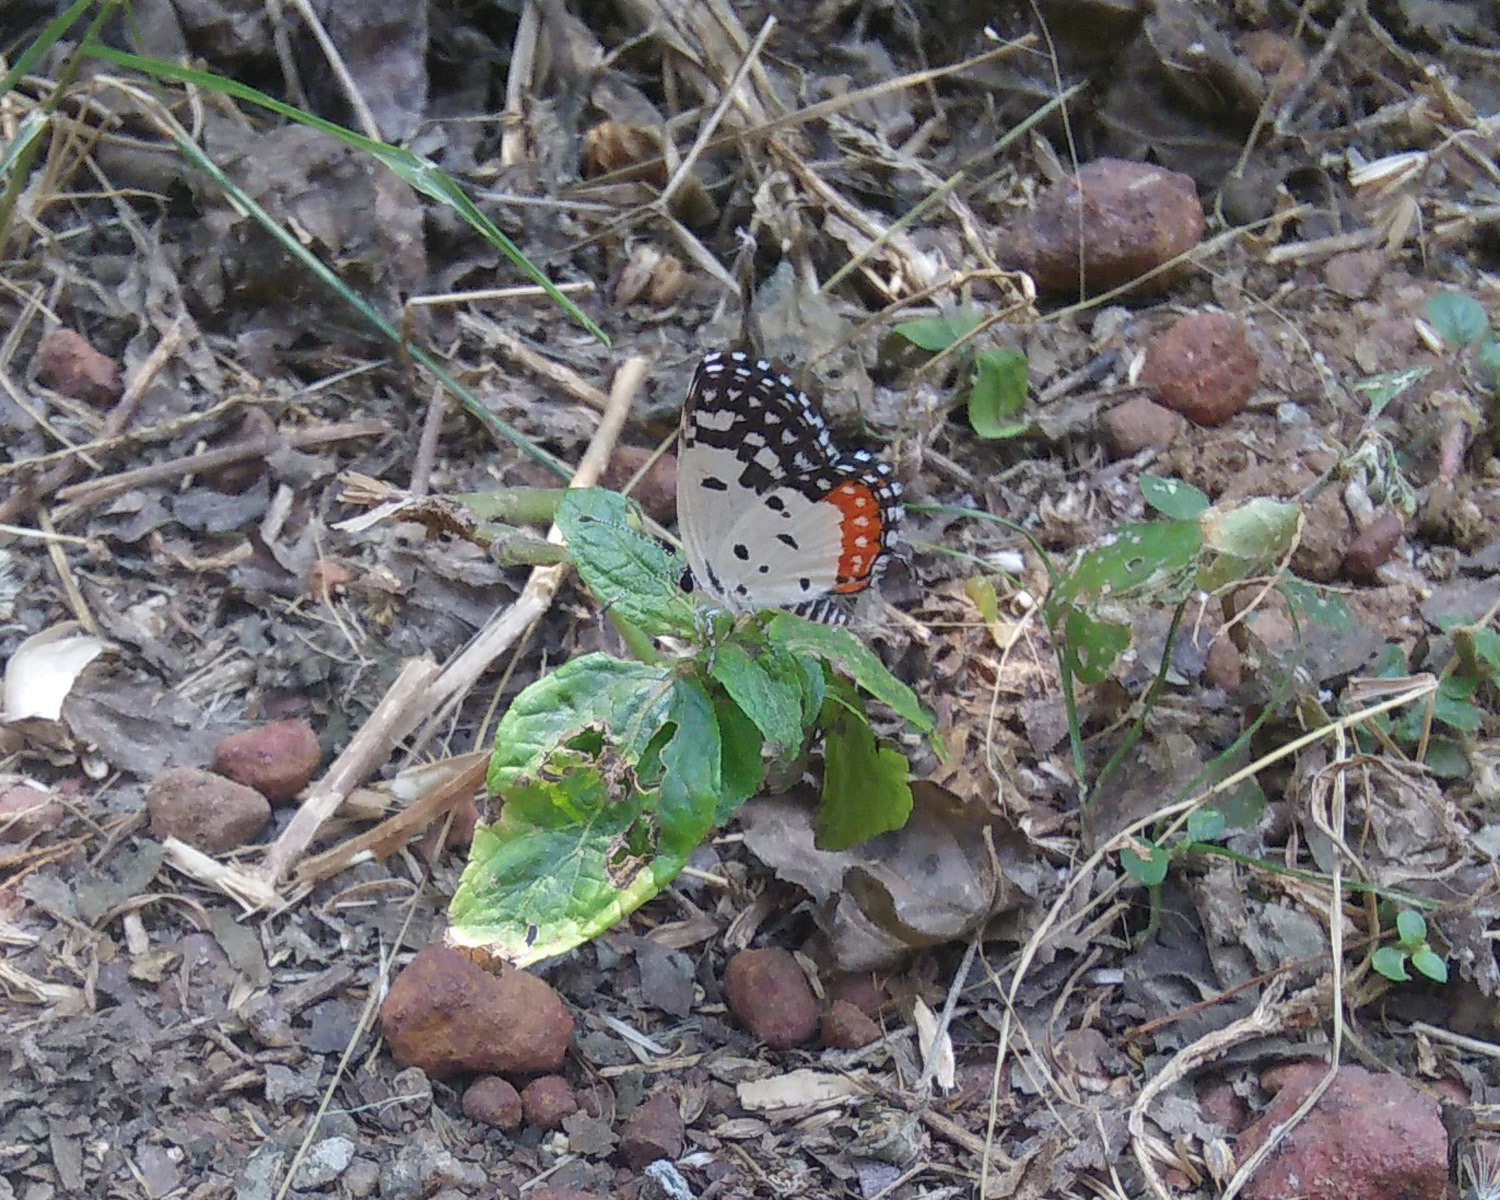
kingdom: Animalia
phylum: Arthropoda
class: Insecta
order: Lepidoptera
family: Lycaenidae
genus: Talicada
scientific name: Talicada nyseus
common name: Red pierrot
